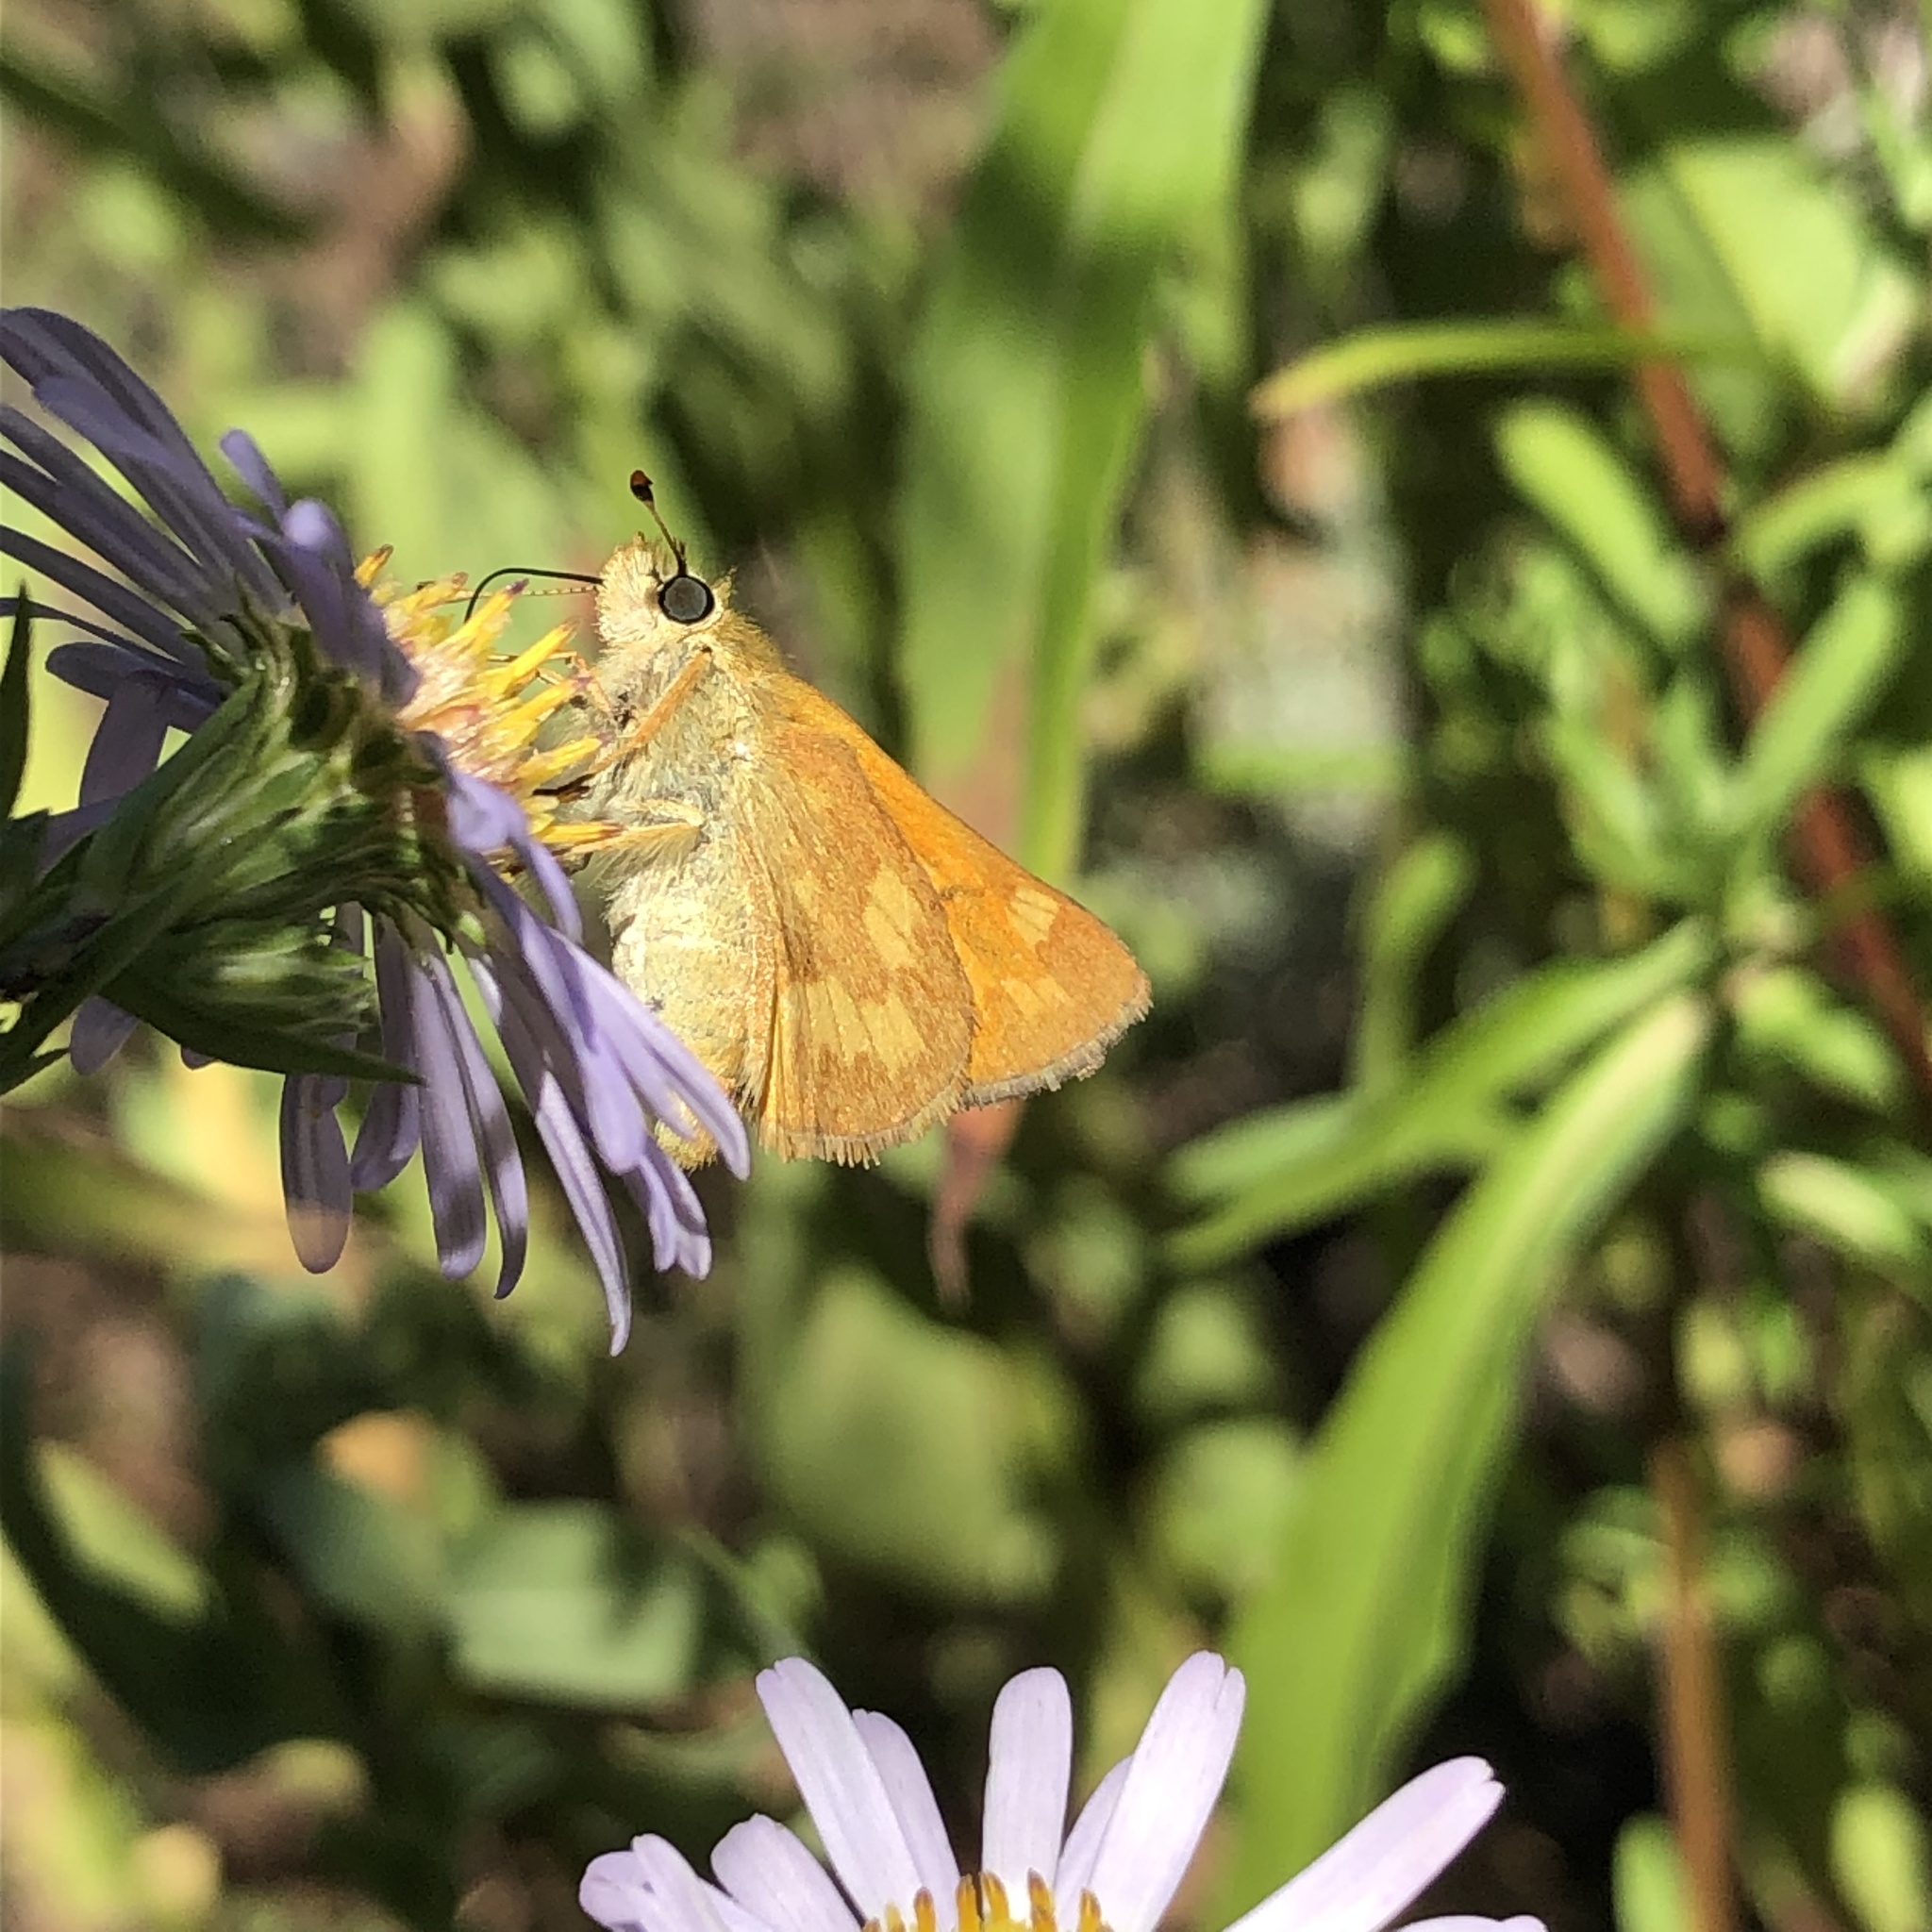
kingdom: Animalia
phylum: Arthropoda
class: Insecta
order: Lepidoptera
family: Hesperiidae
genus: Ochlodes
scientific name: Ochlodes sylvanoides
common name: Woodland skipper
